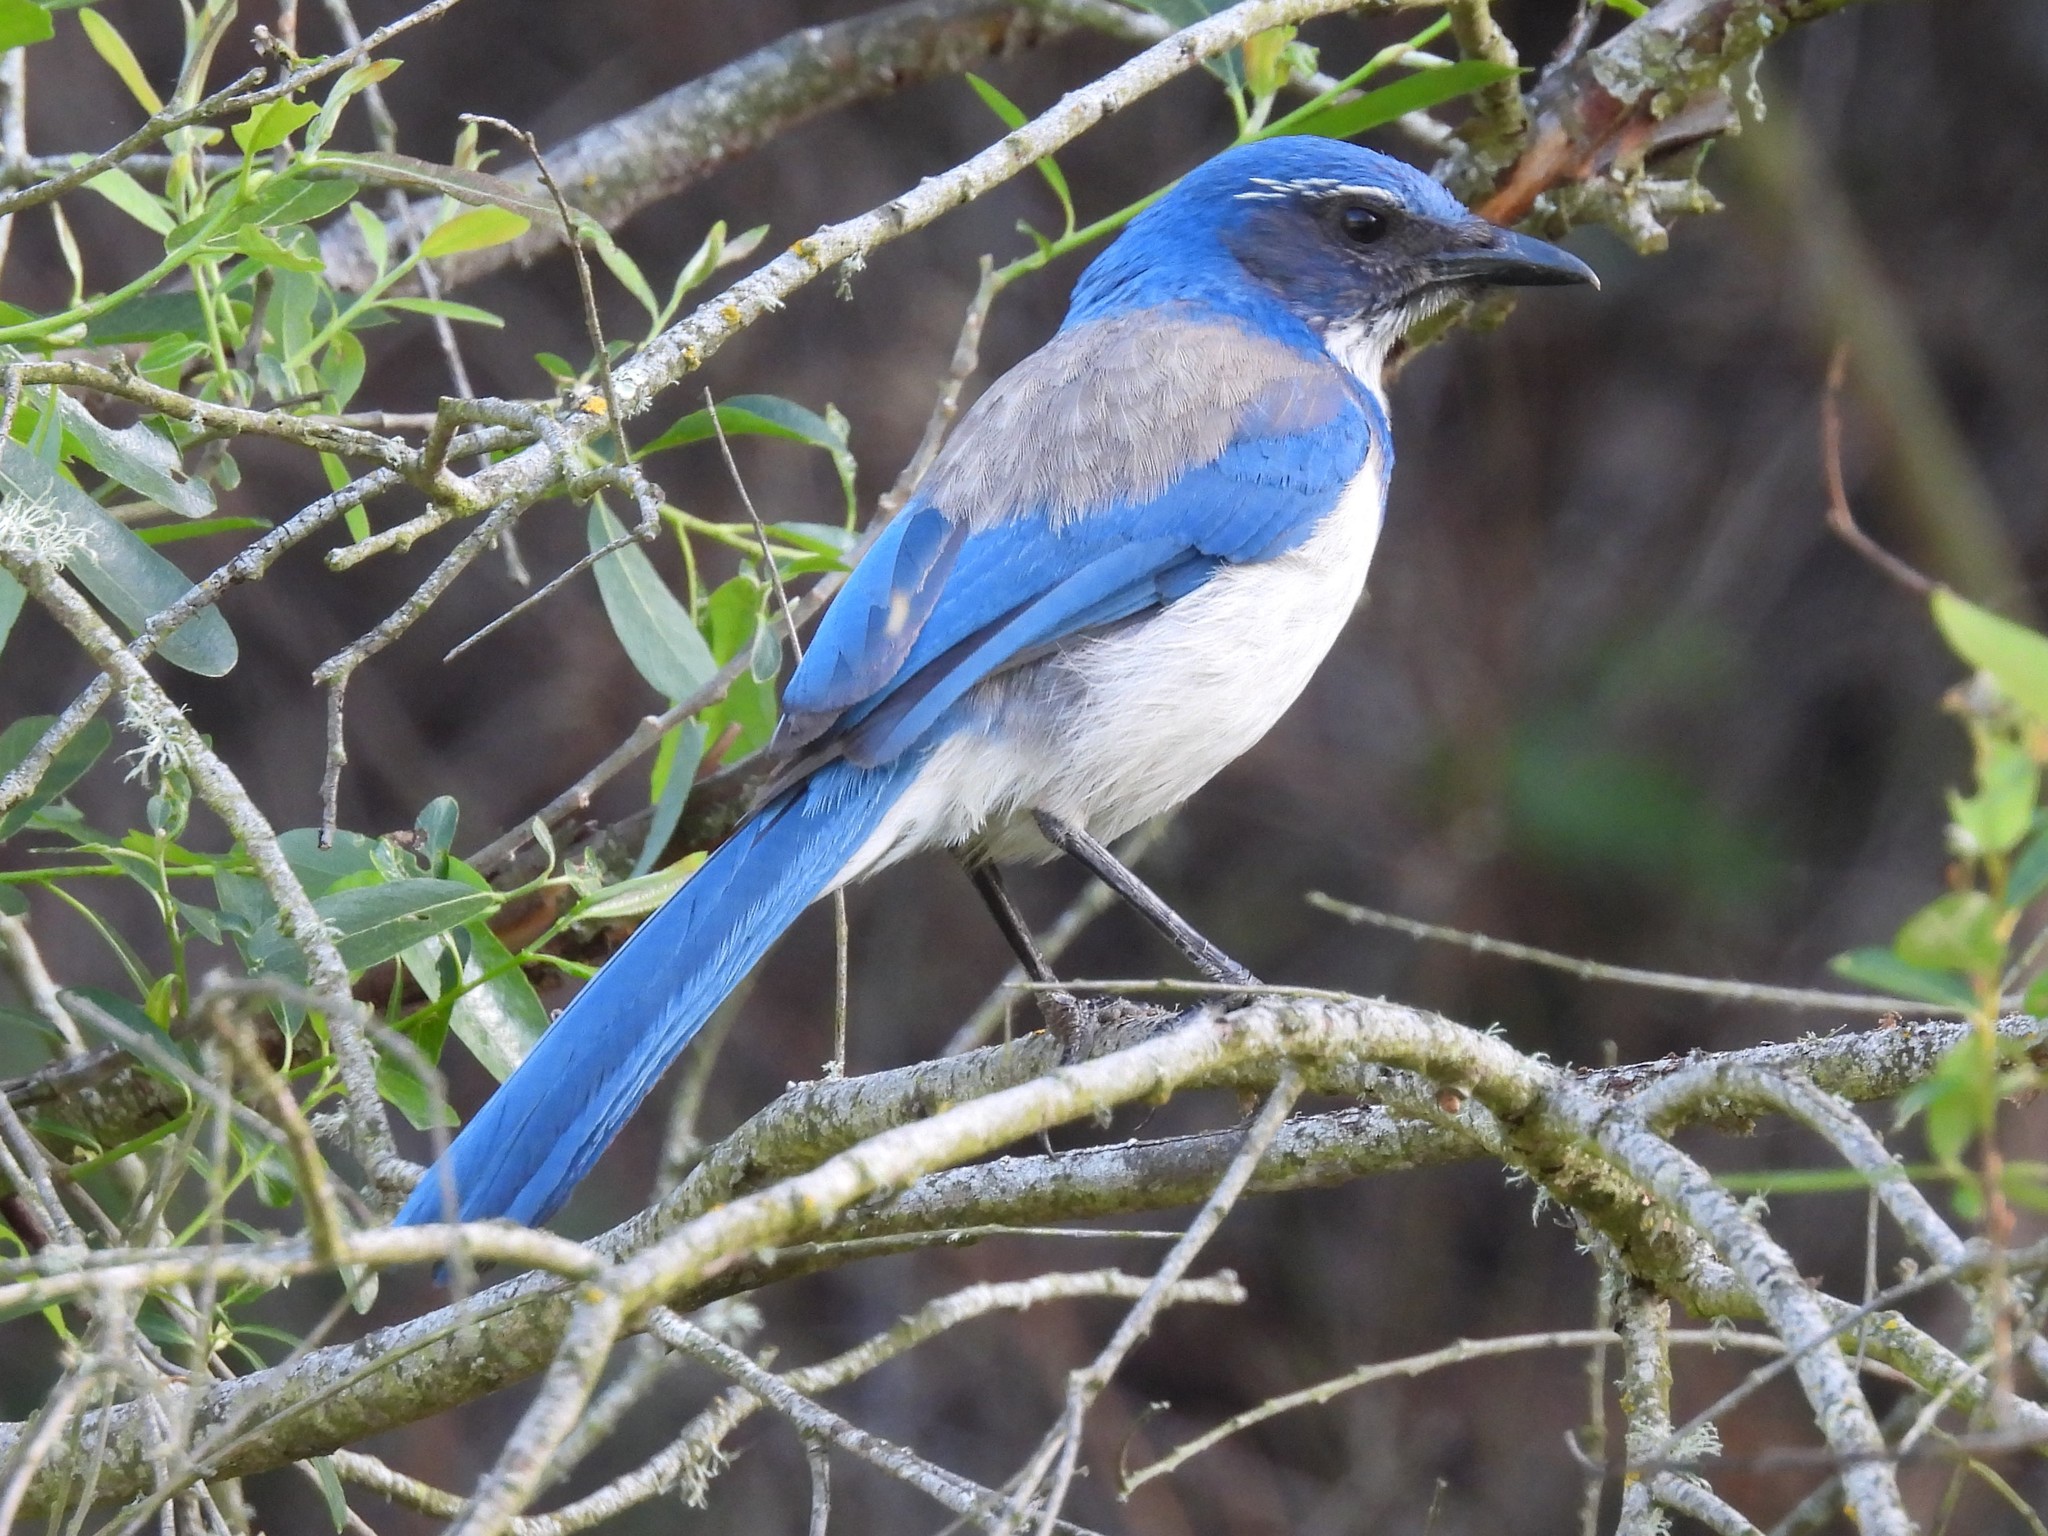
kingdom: Animalia
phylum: Chordata
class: Aves
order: Passeriformes
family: Corvidae
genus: Aphelocoma
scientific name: Aphelocoma californica
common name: California scrub-jay
